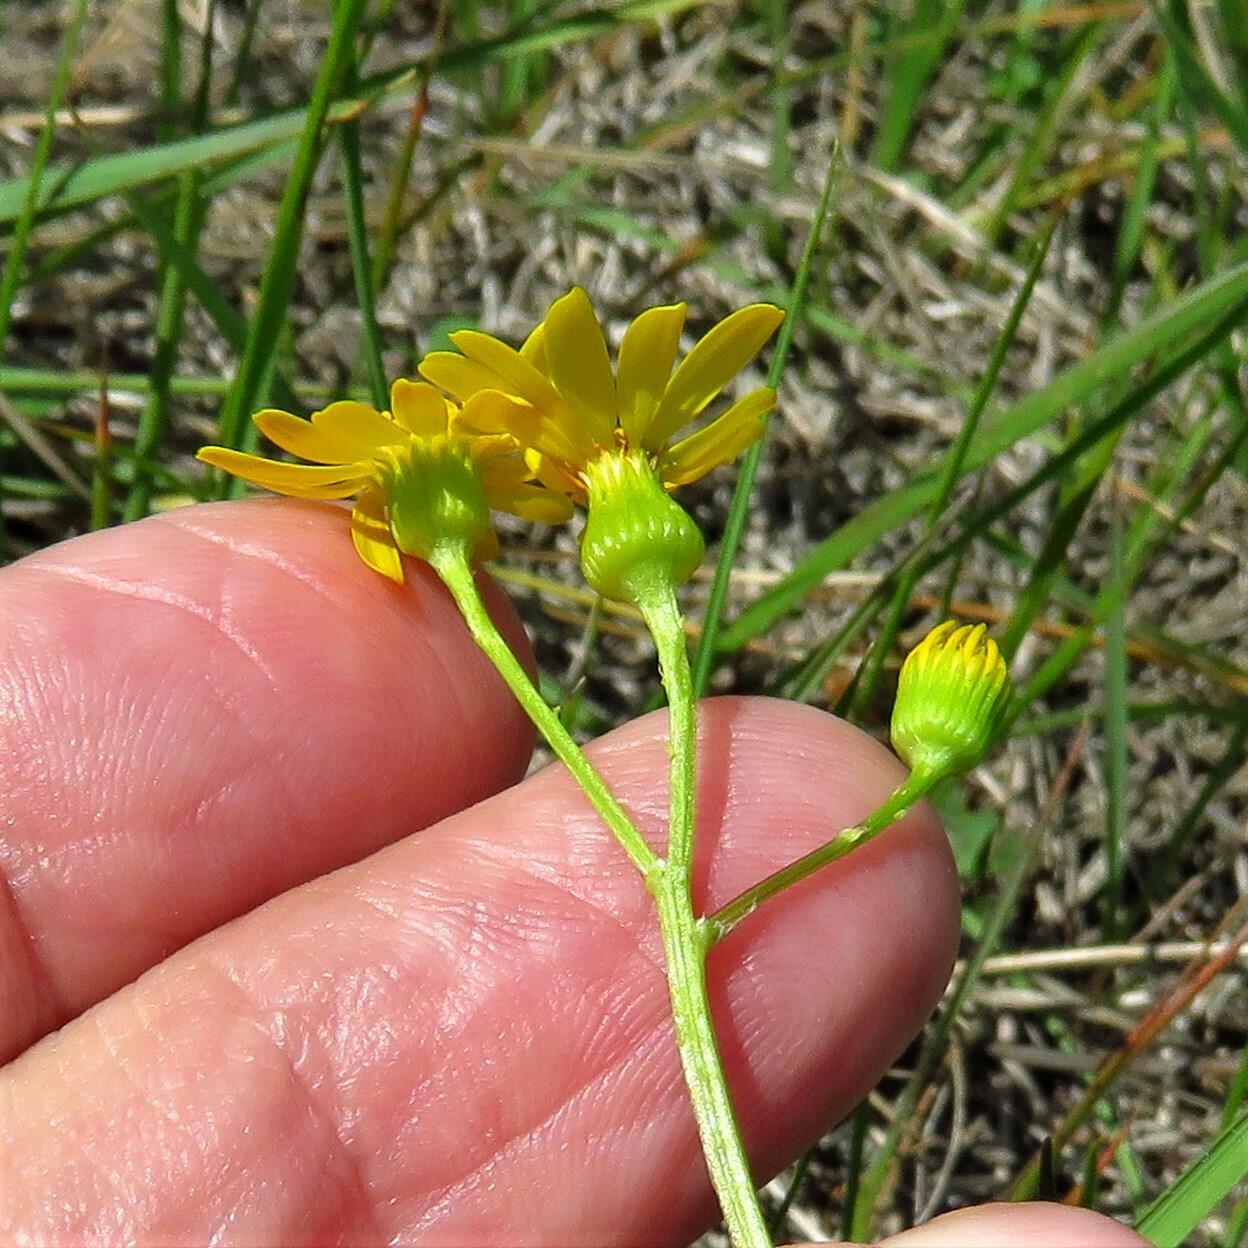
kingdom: Plantae
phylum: Tracheophyta
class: Magnoliopsida
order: Asterales
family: Asteraceae
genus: Packera
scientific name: Packera tampicana
